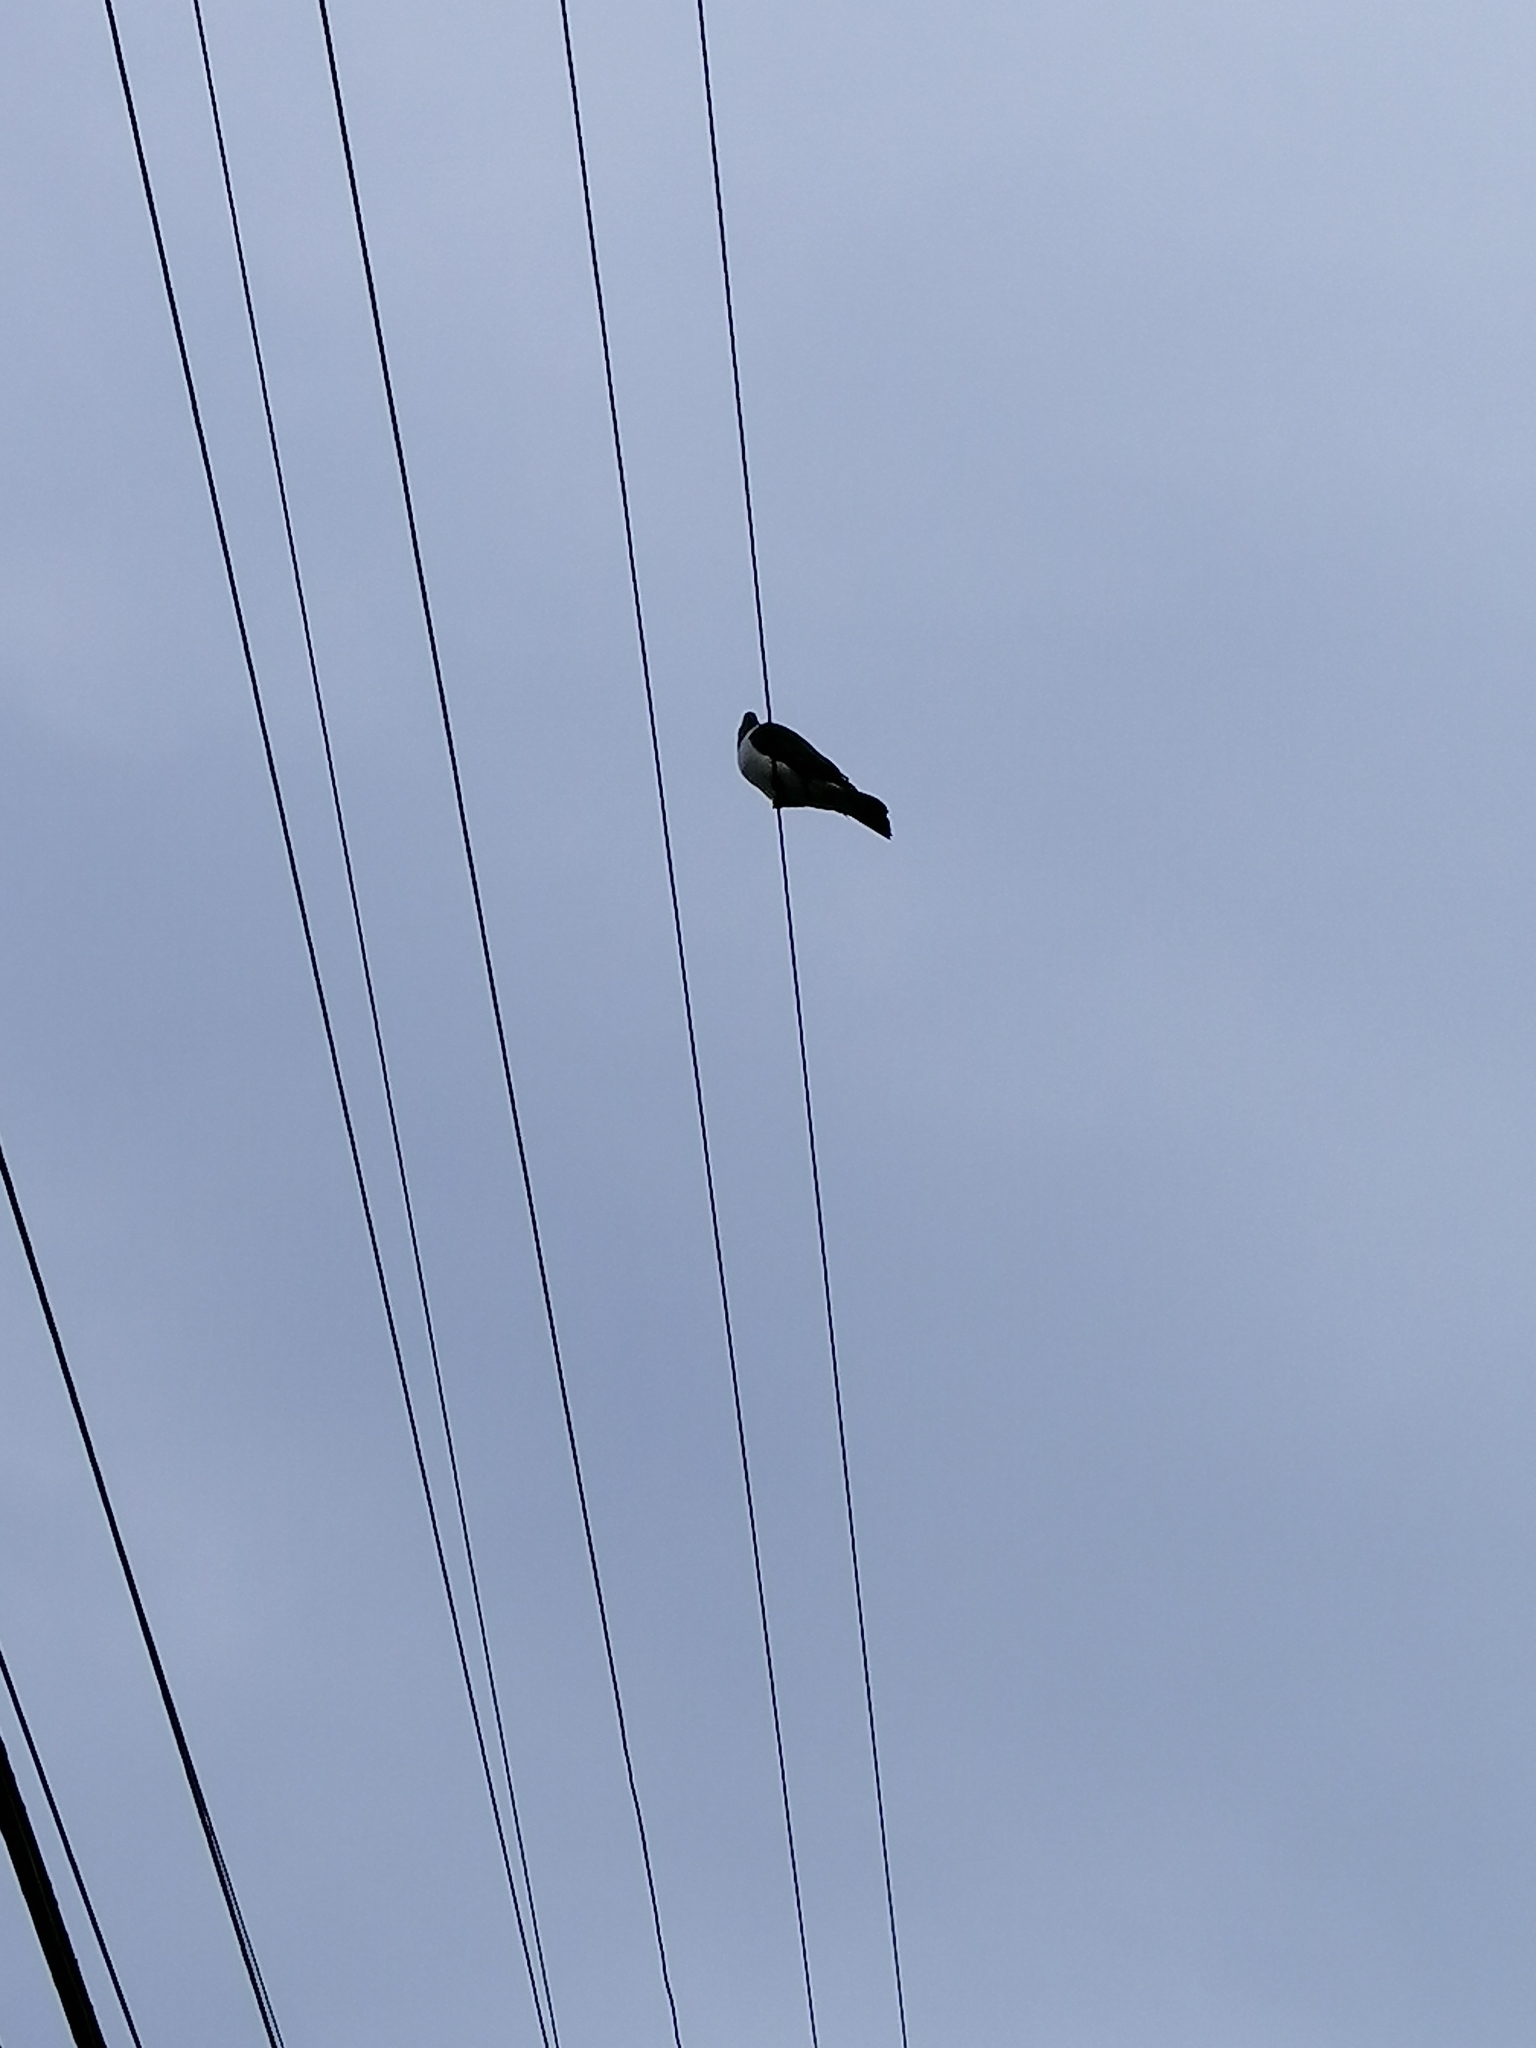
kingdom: Animalia
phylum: Chordata
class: Aves
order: Columbiformes
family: Columbidae
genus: Hemiphaga
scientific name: Hemiphaga novaeseelandiae
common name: New zealand pigeon
